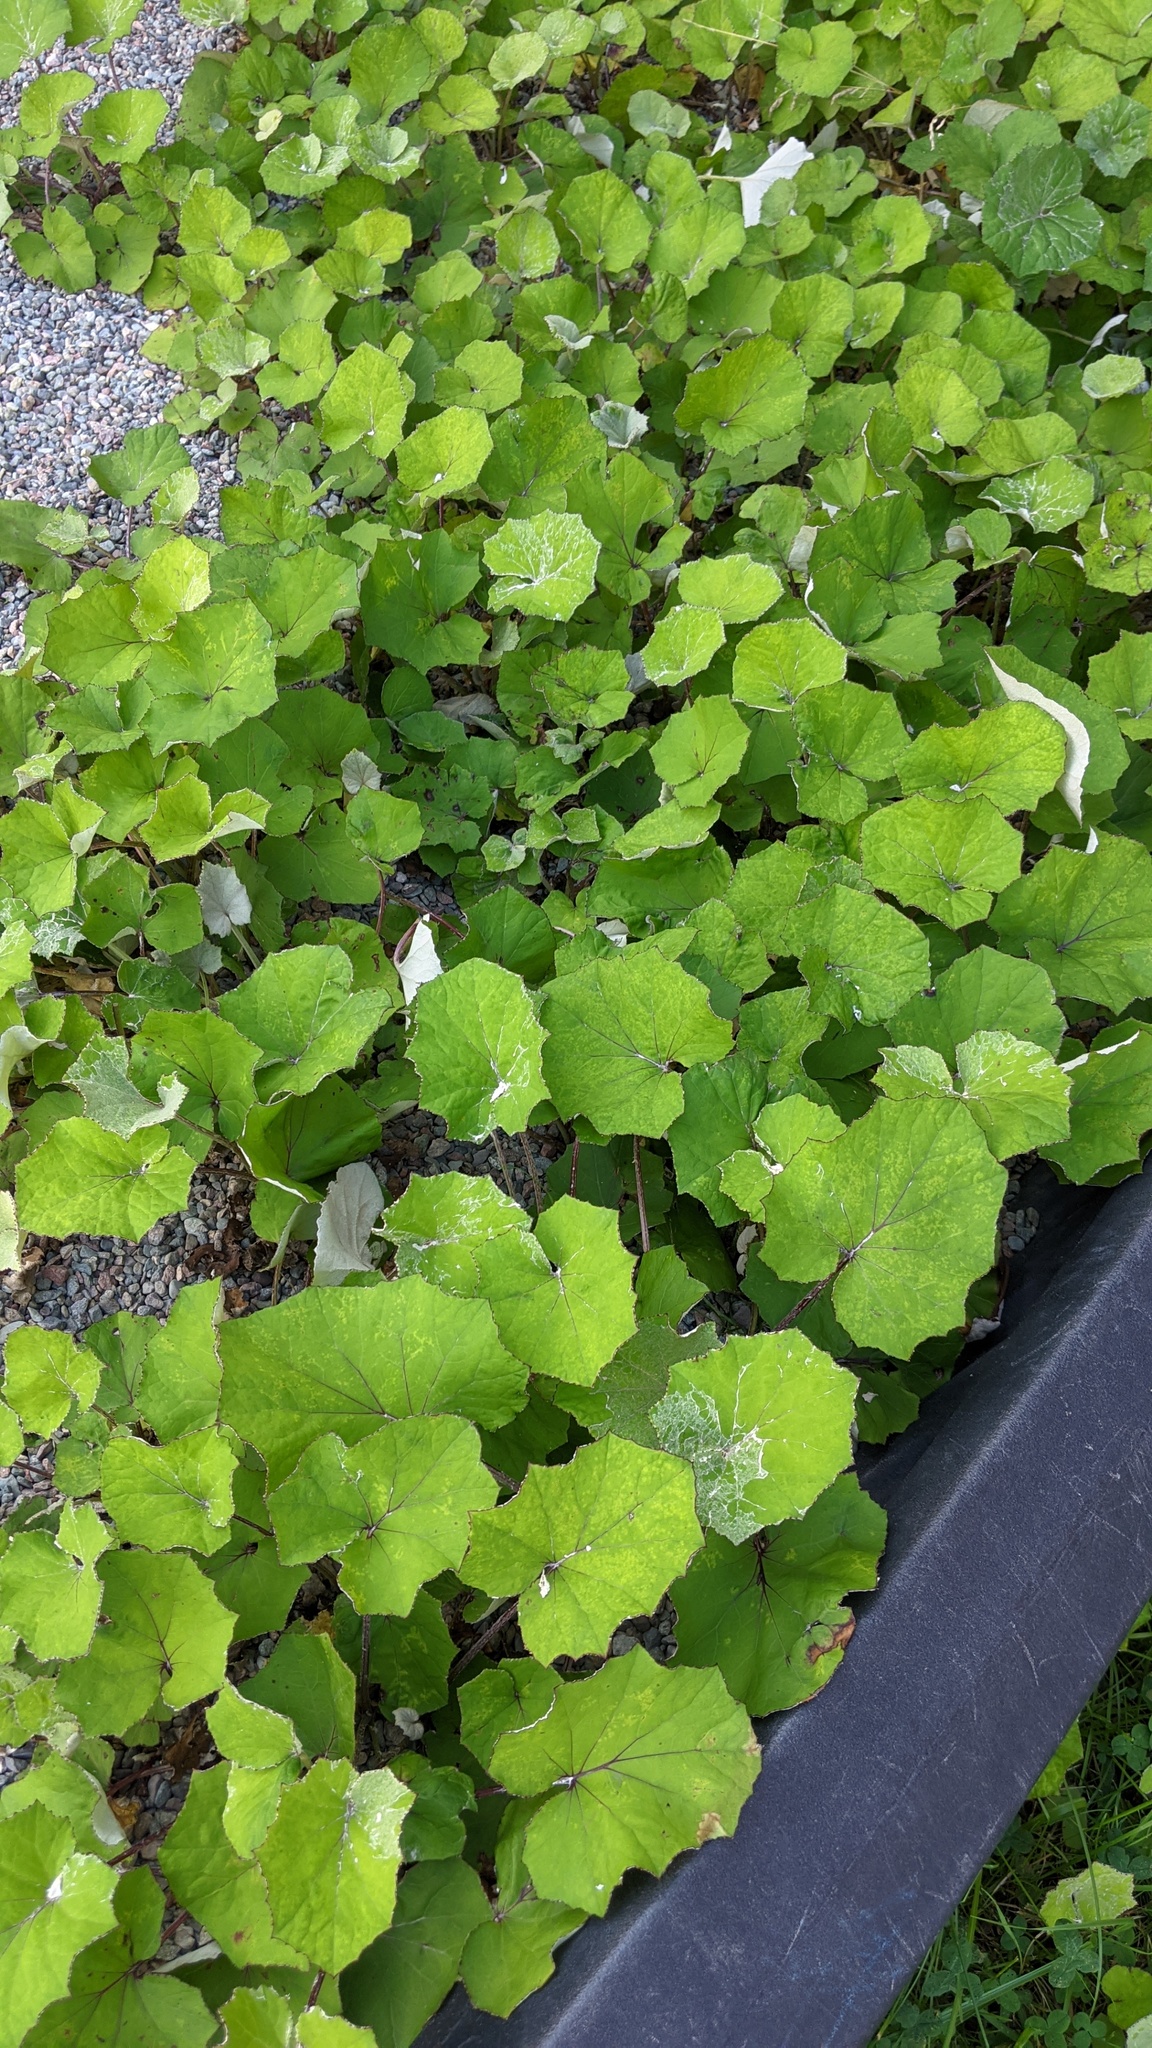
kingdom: Plantae
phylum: Tracheophyta
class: Magnoliopsida
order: Asterales
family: Asteraceae
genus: Tussilago
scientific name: Tussilago farfara
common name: Coltsfoot
